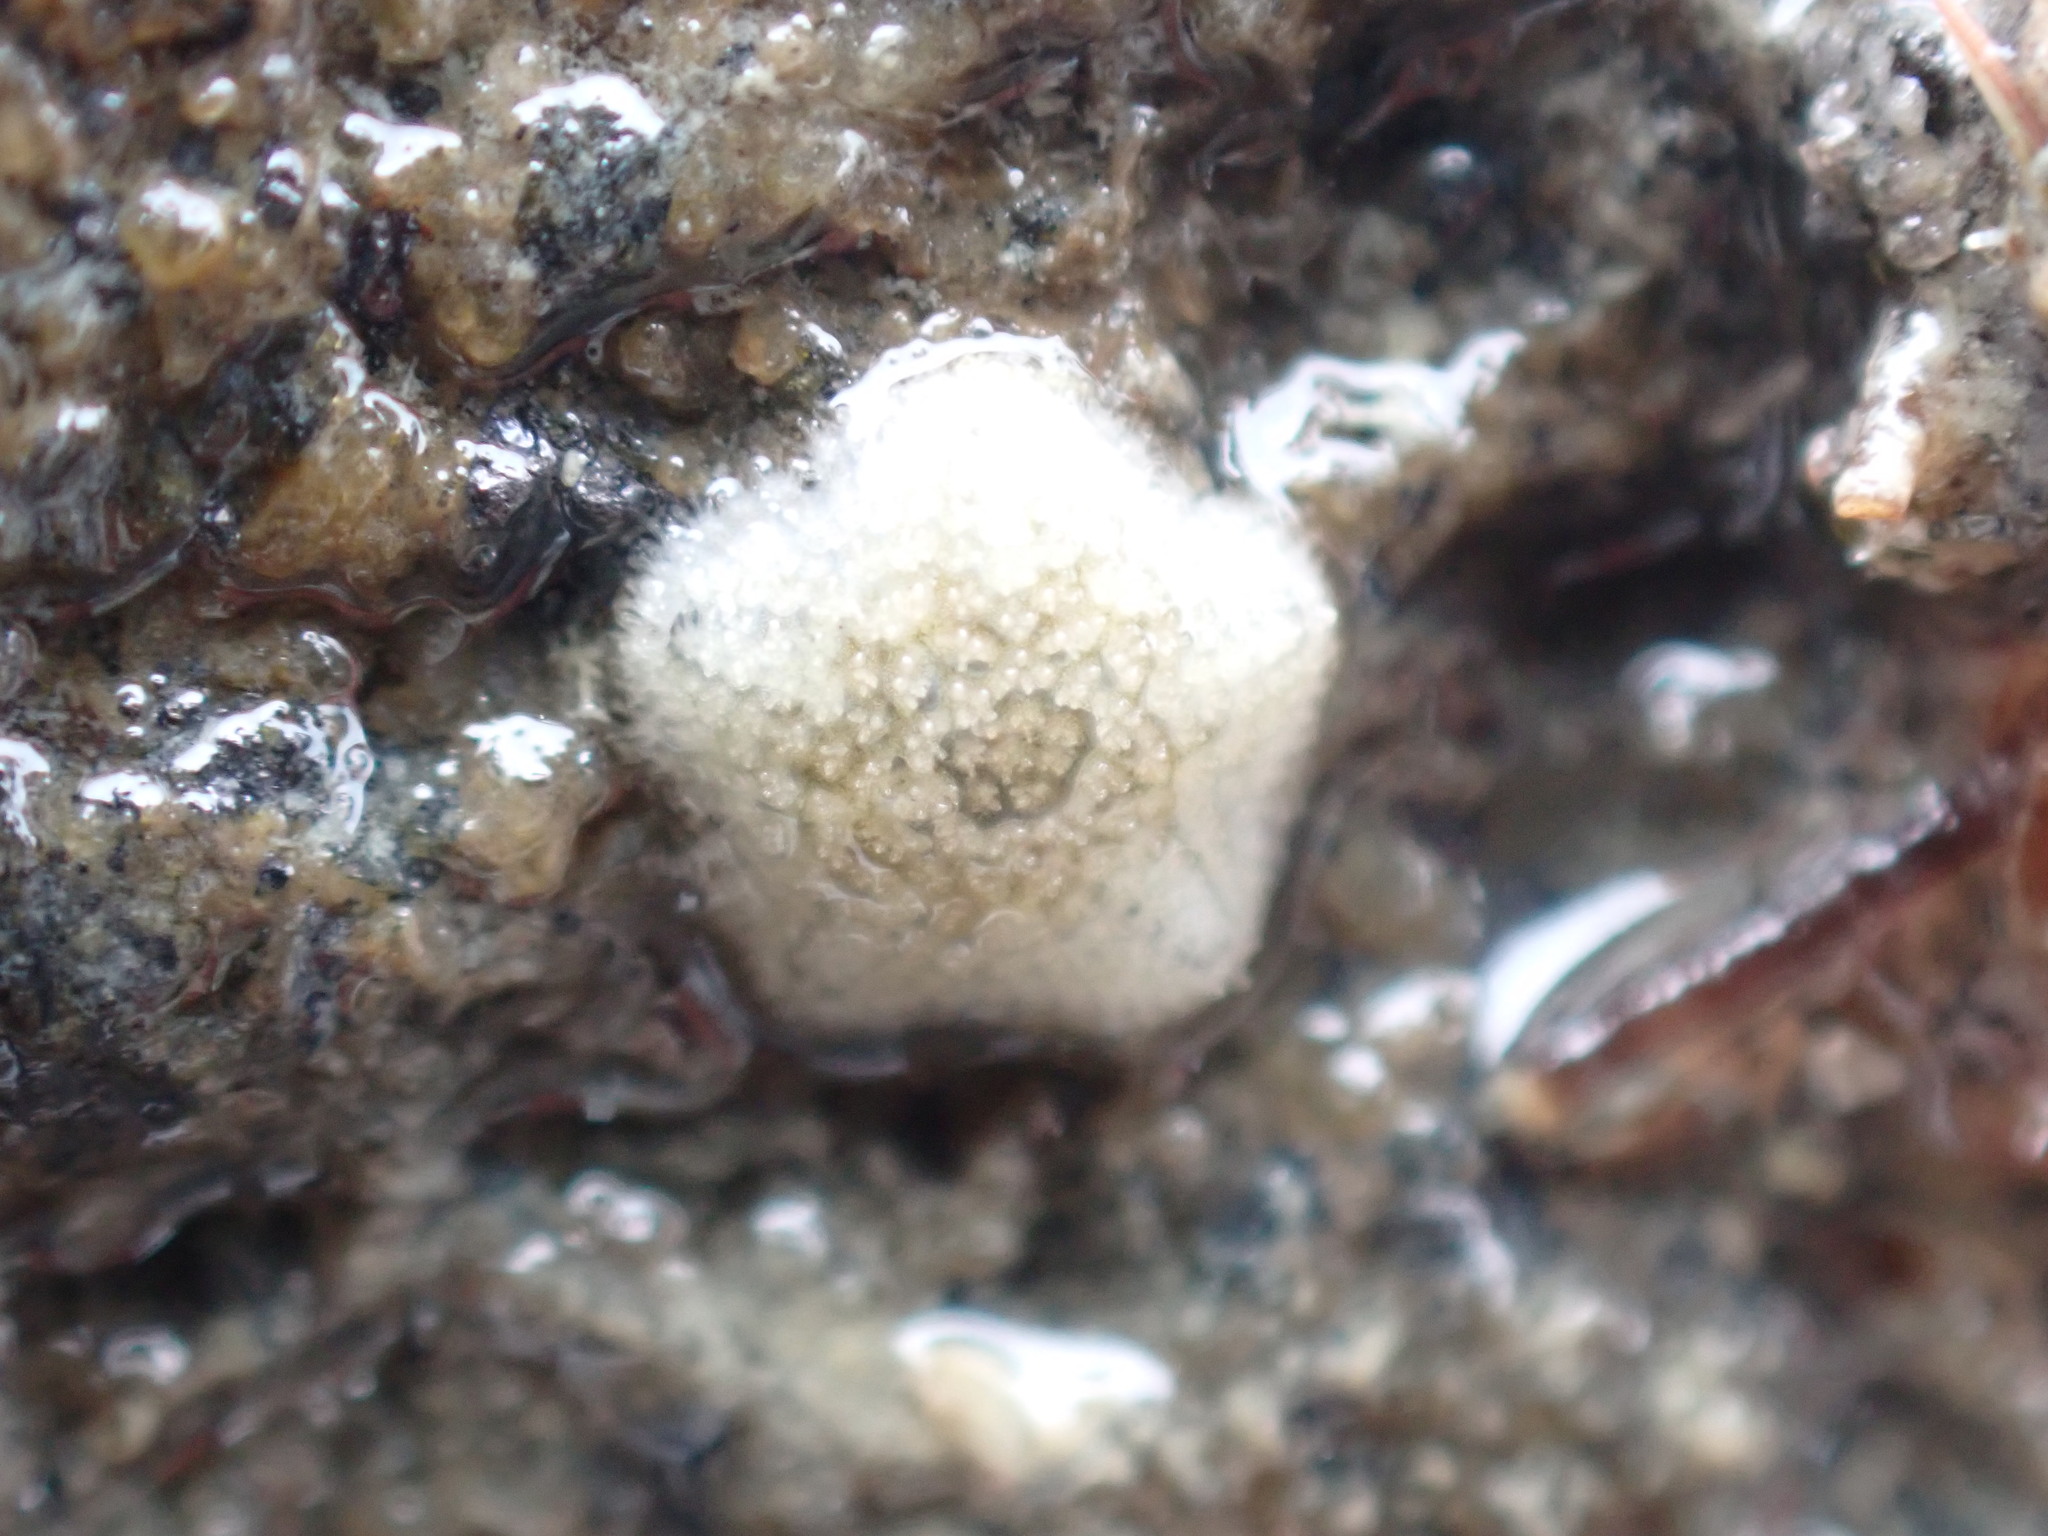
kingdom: Animalia
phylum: Echinodermata
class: Asteroidea
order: Valvatida
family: Asterinidae
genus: Patiriella
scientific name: Patiriella regularis
